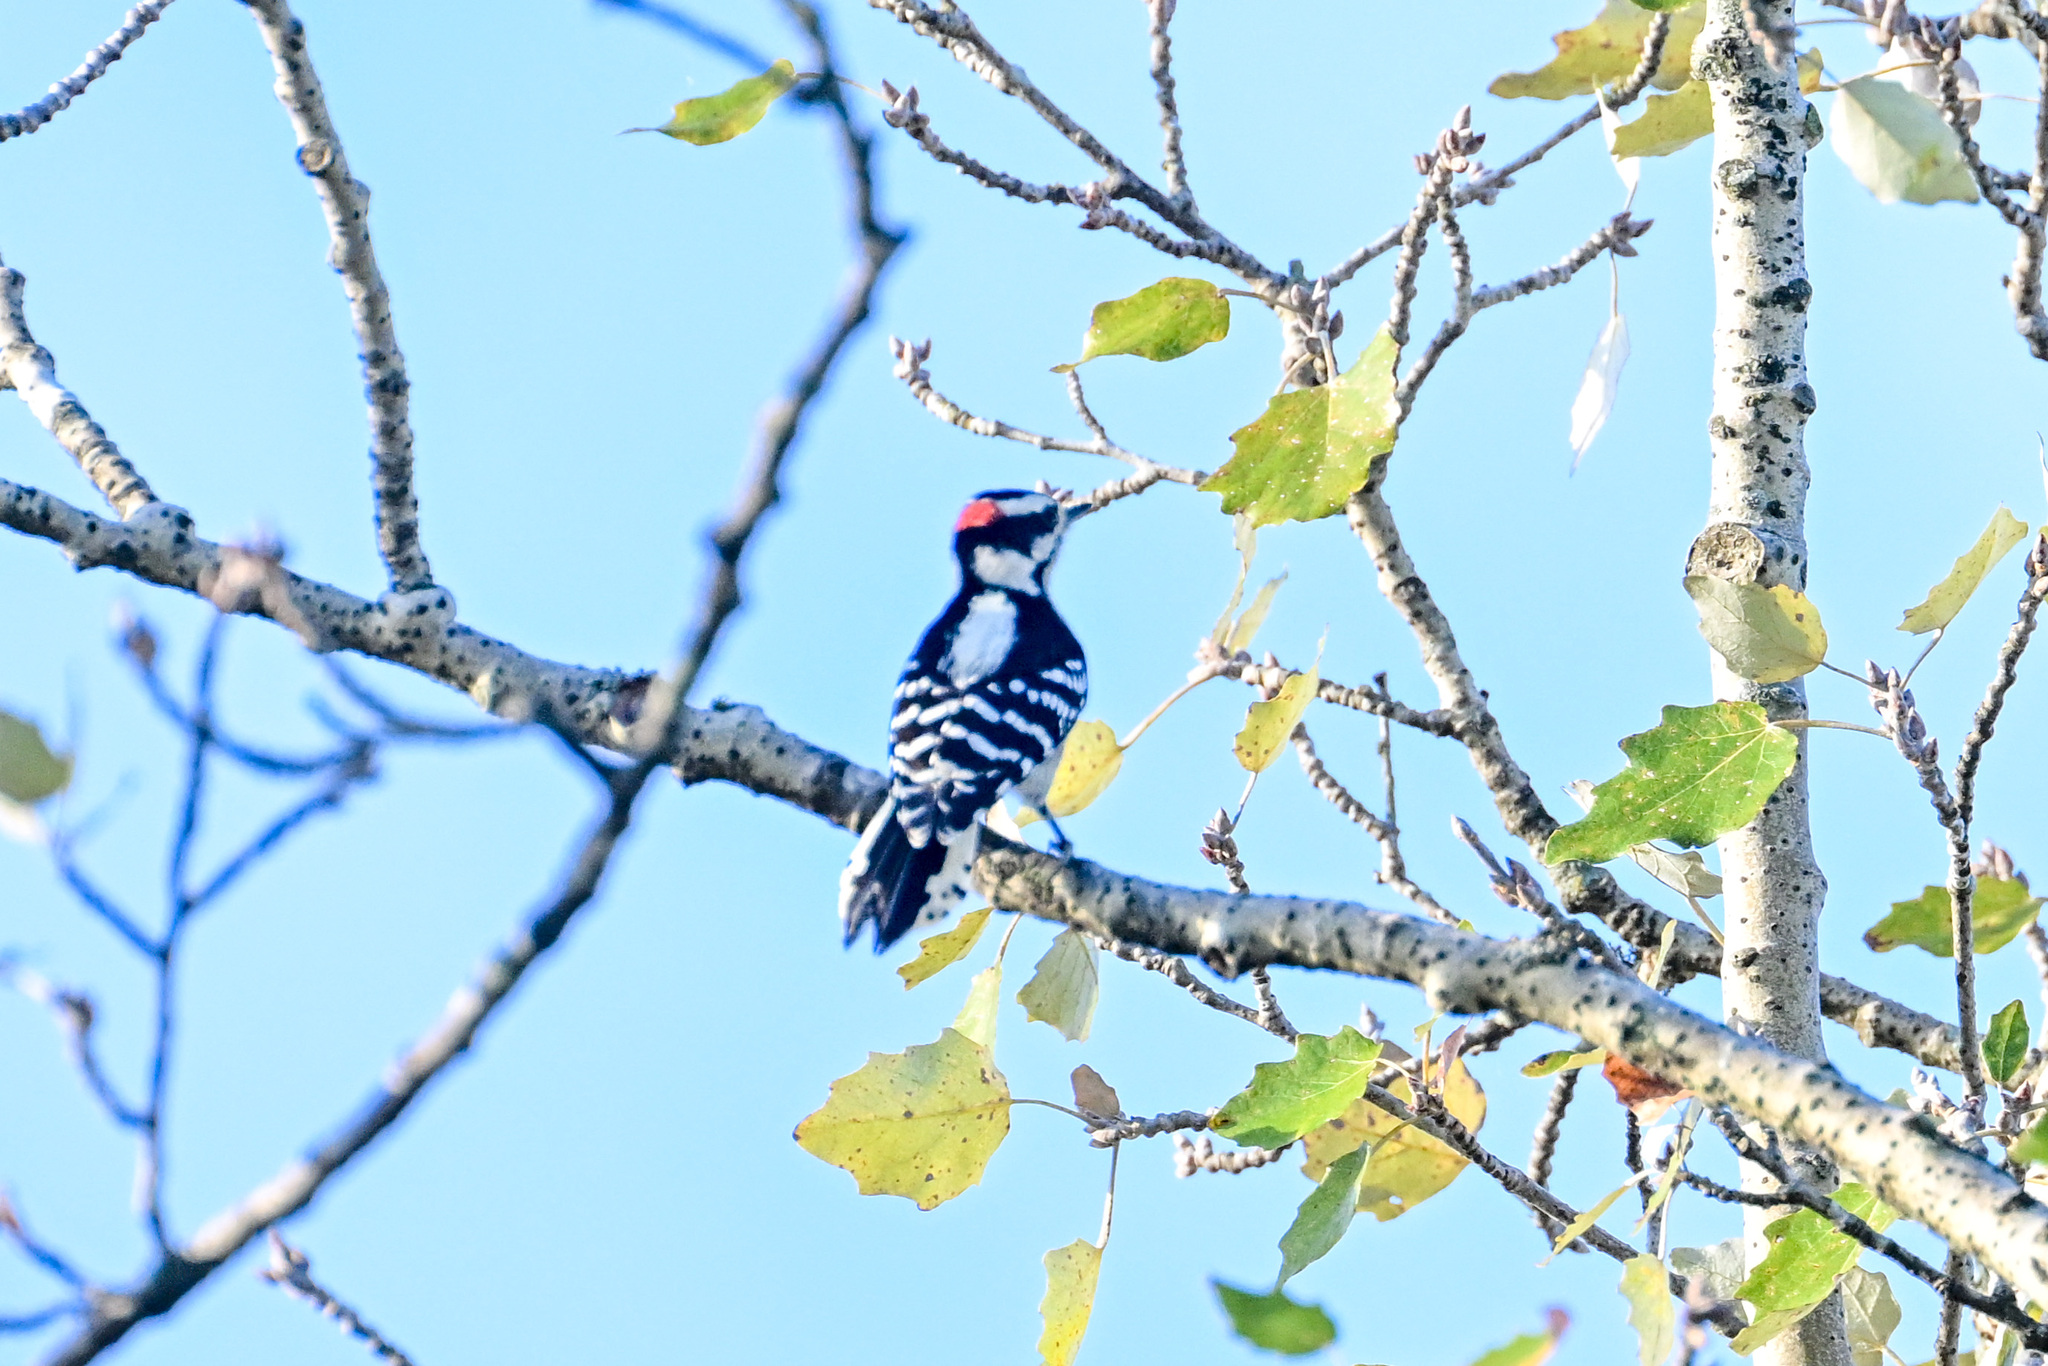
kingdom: Animalia
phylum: Chordata
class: Aves
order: Piciformes
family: Picidae
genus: Dryobates
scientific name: Dryobates pubescens
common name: Downy woodpecker
